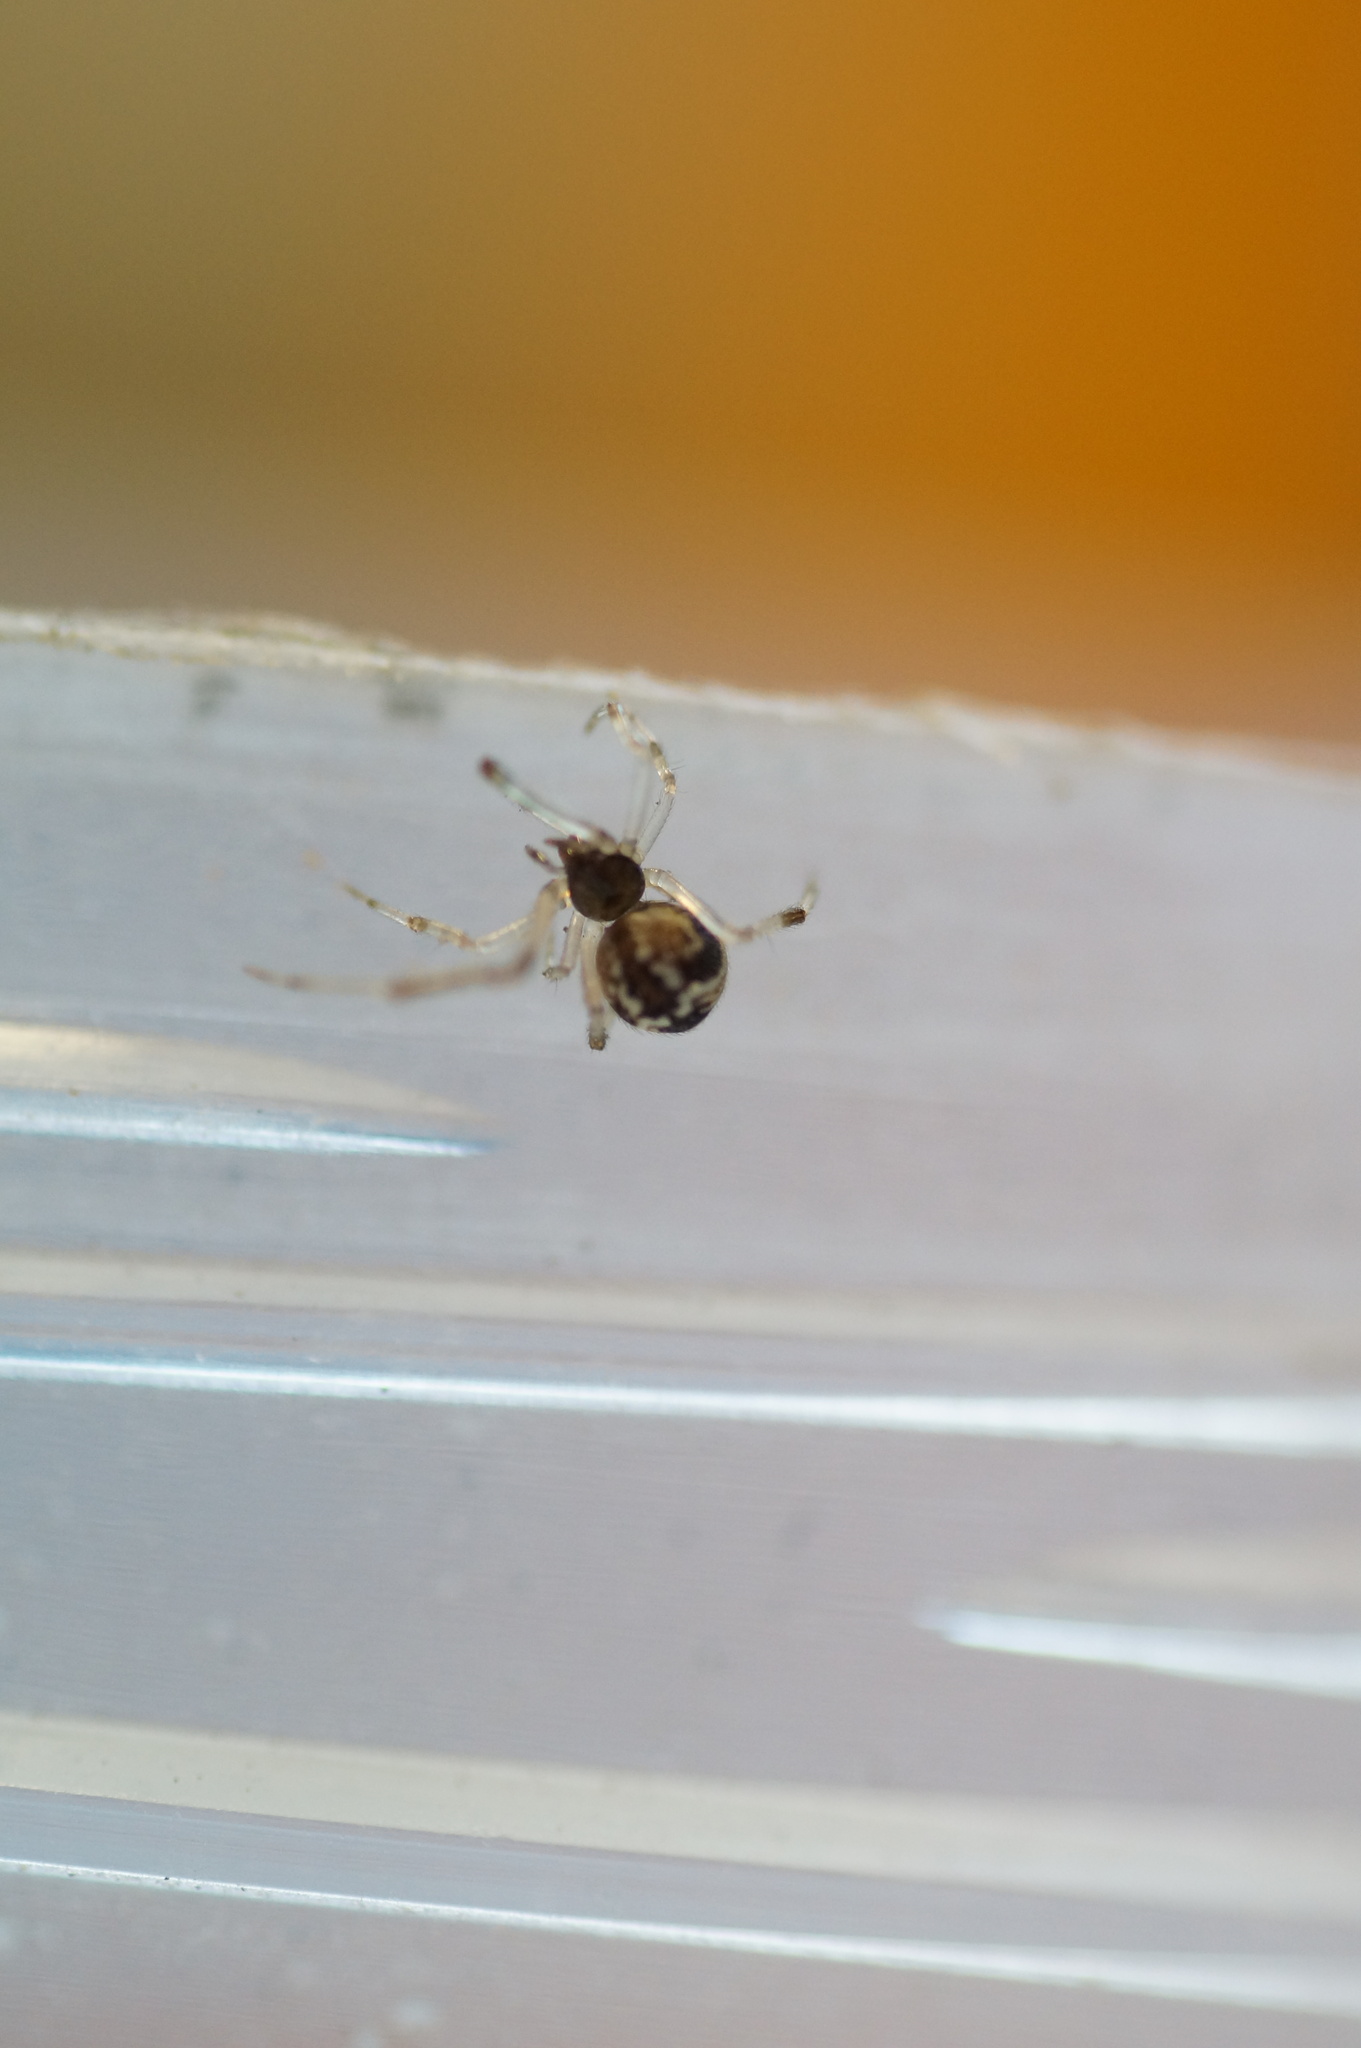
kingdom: Animalia
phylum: Arthropoda
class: Arachnida
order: Araneae
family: Theridiidae
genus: Parasteatoda
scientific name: Parasteatoda simulans
